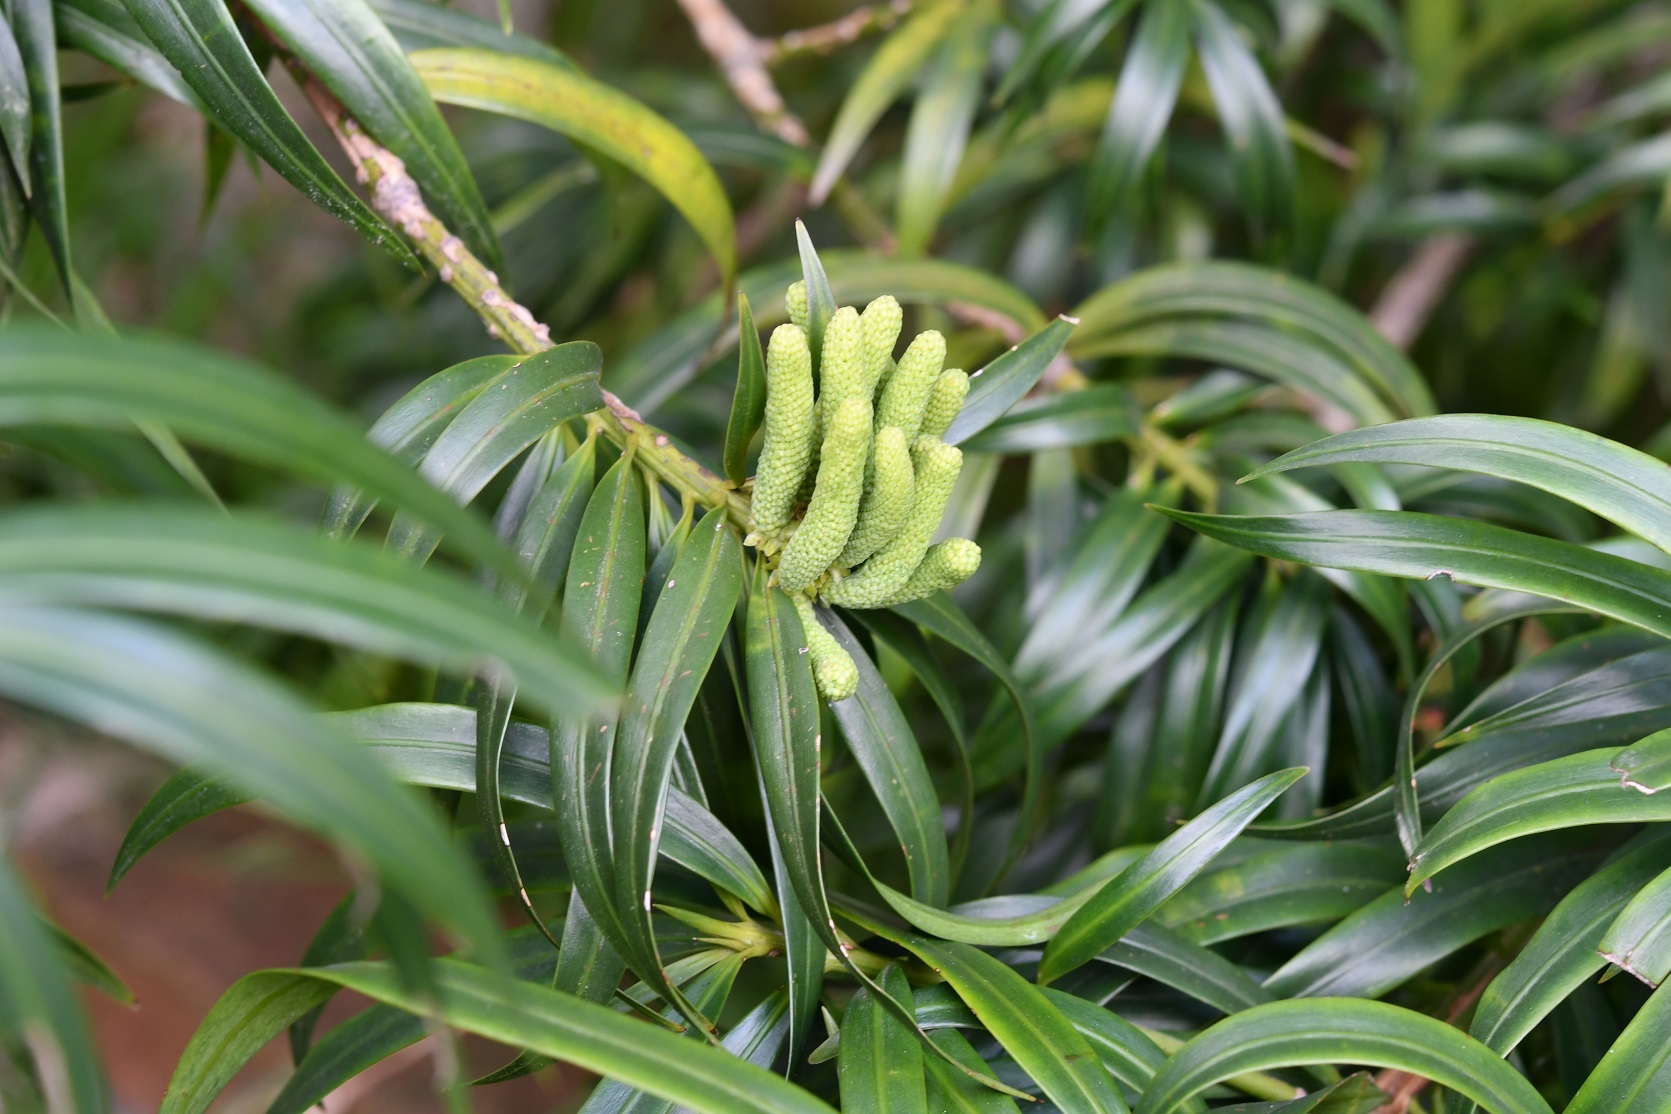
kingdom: Plantae
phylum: Tracheophyta
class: Pinopsida
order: Pinales
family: Podocarpaceae
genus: Podocarpus
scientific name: Podocarpus matudae
